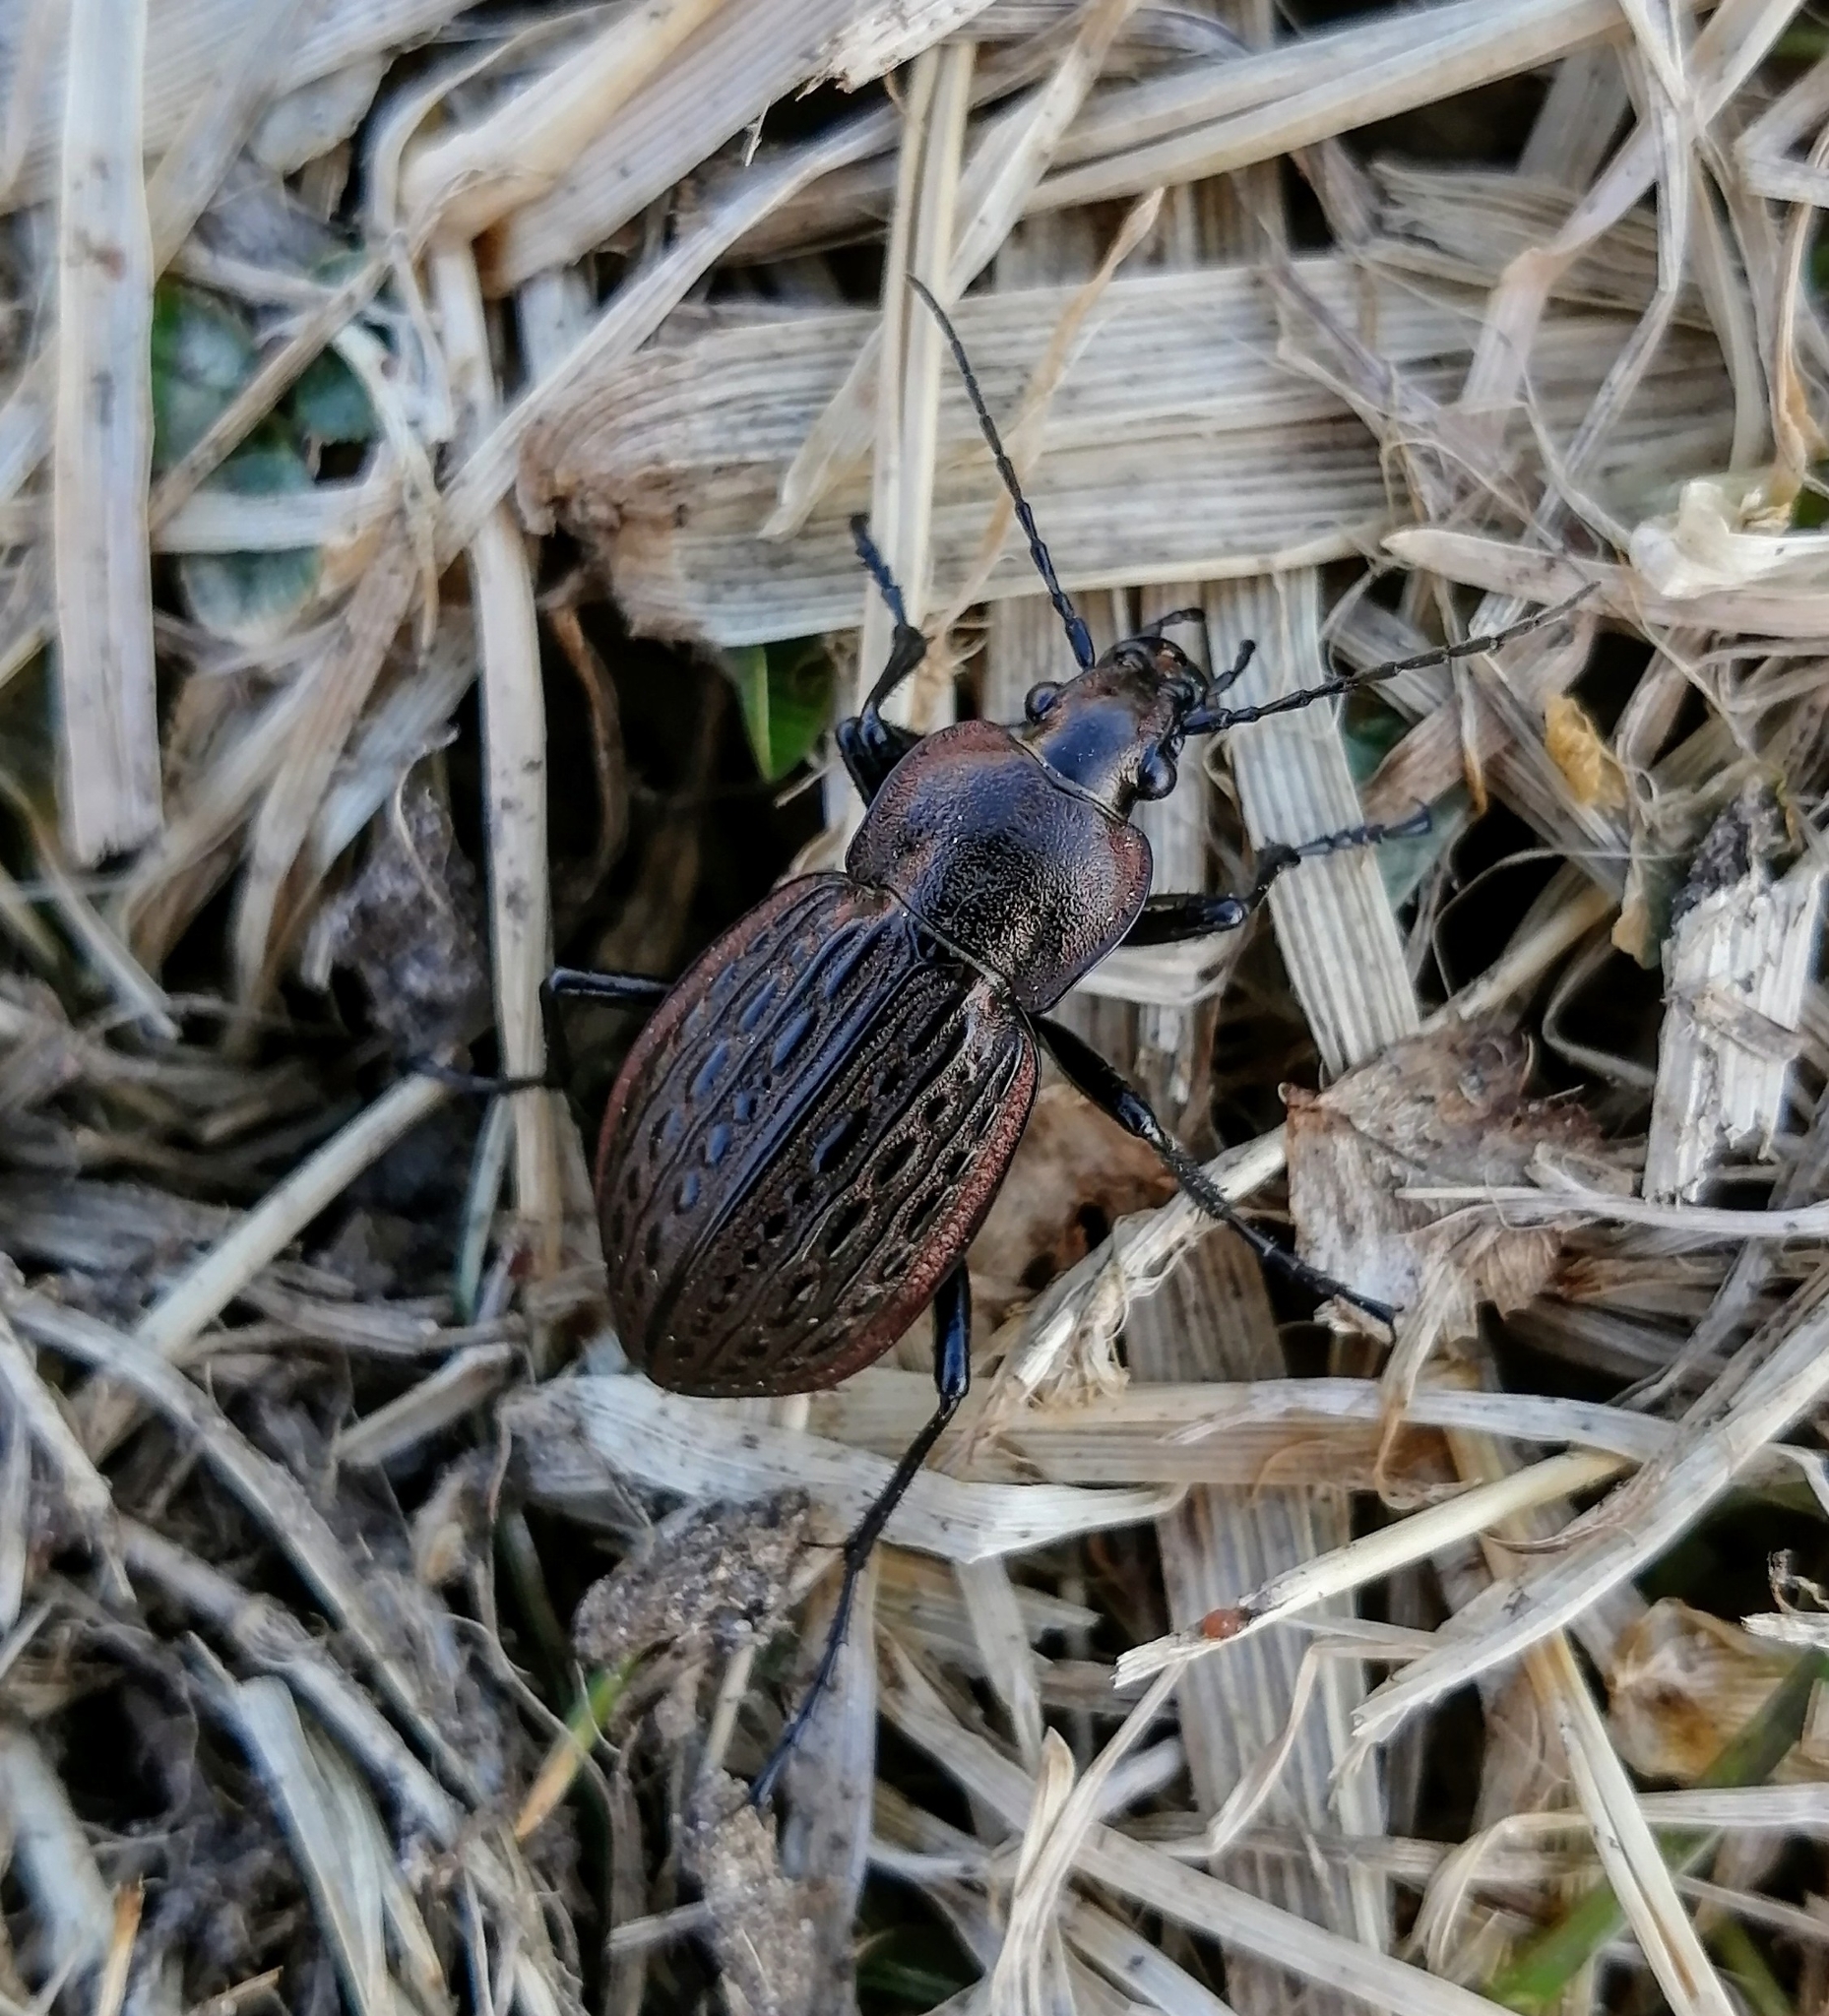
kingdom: Animalia
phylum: Arthropoda
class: Insecta
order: Coleoptera
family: Carabidae
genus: Carabus
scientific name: Carabus maeander
